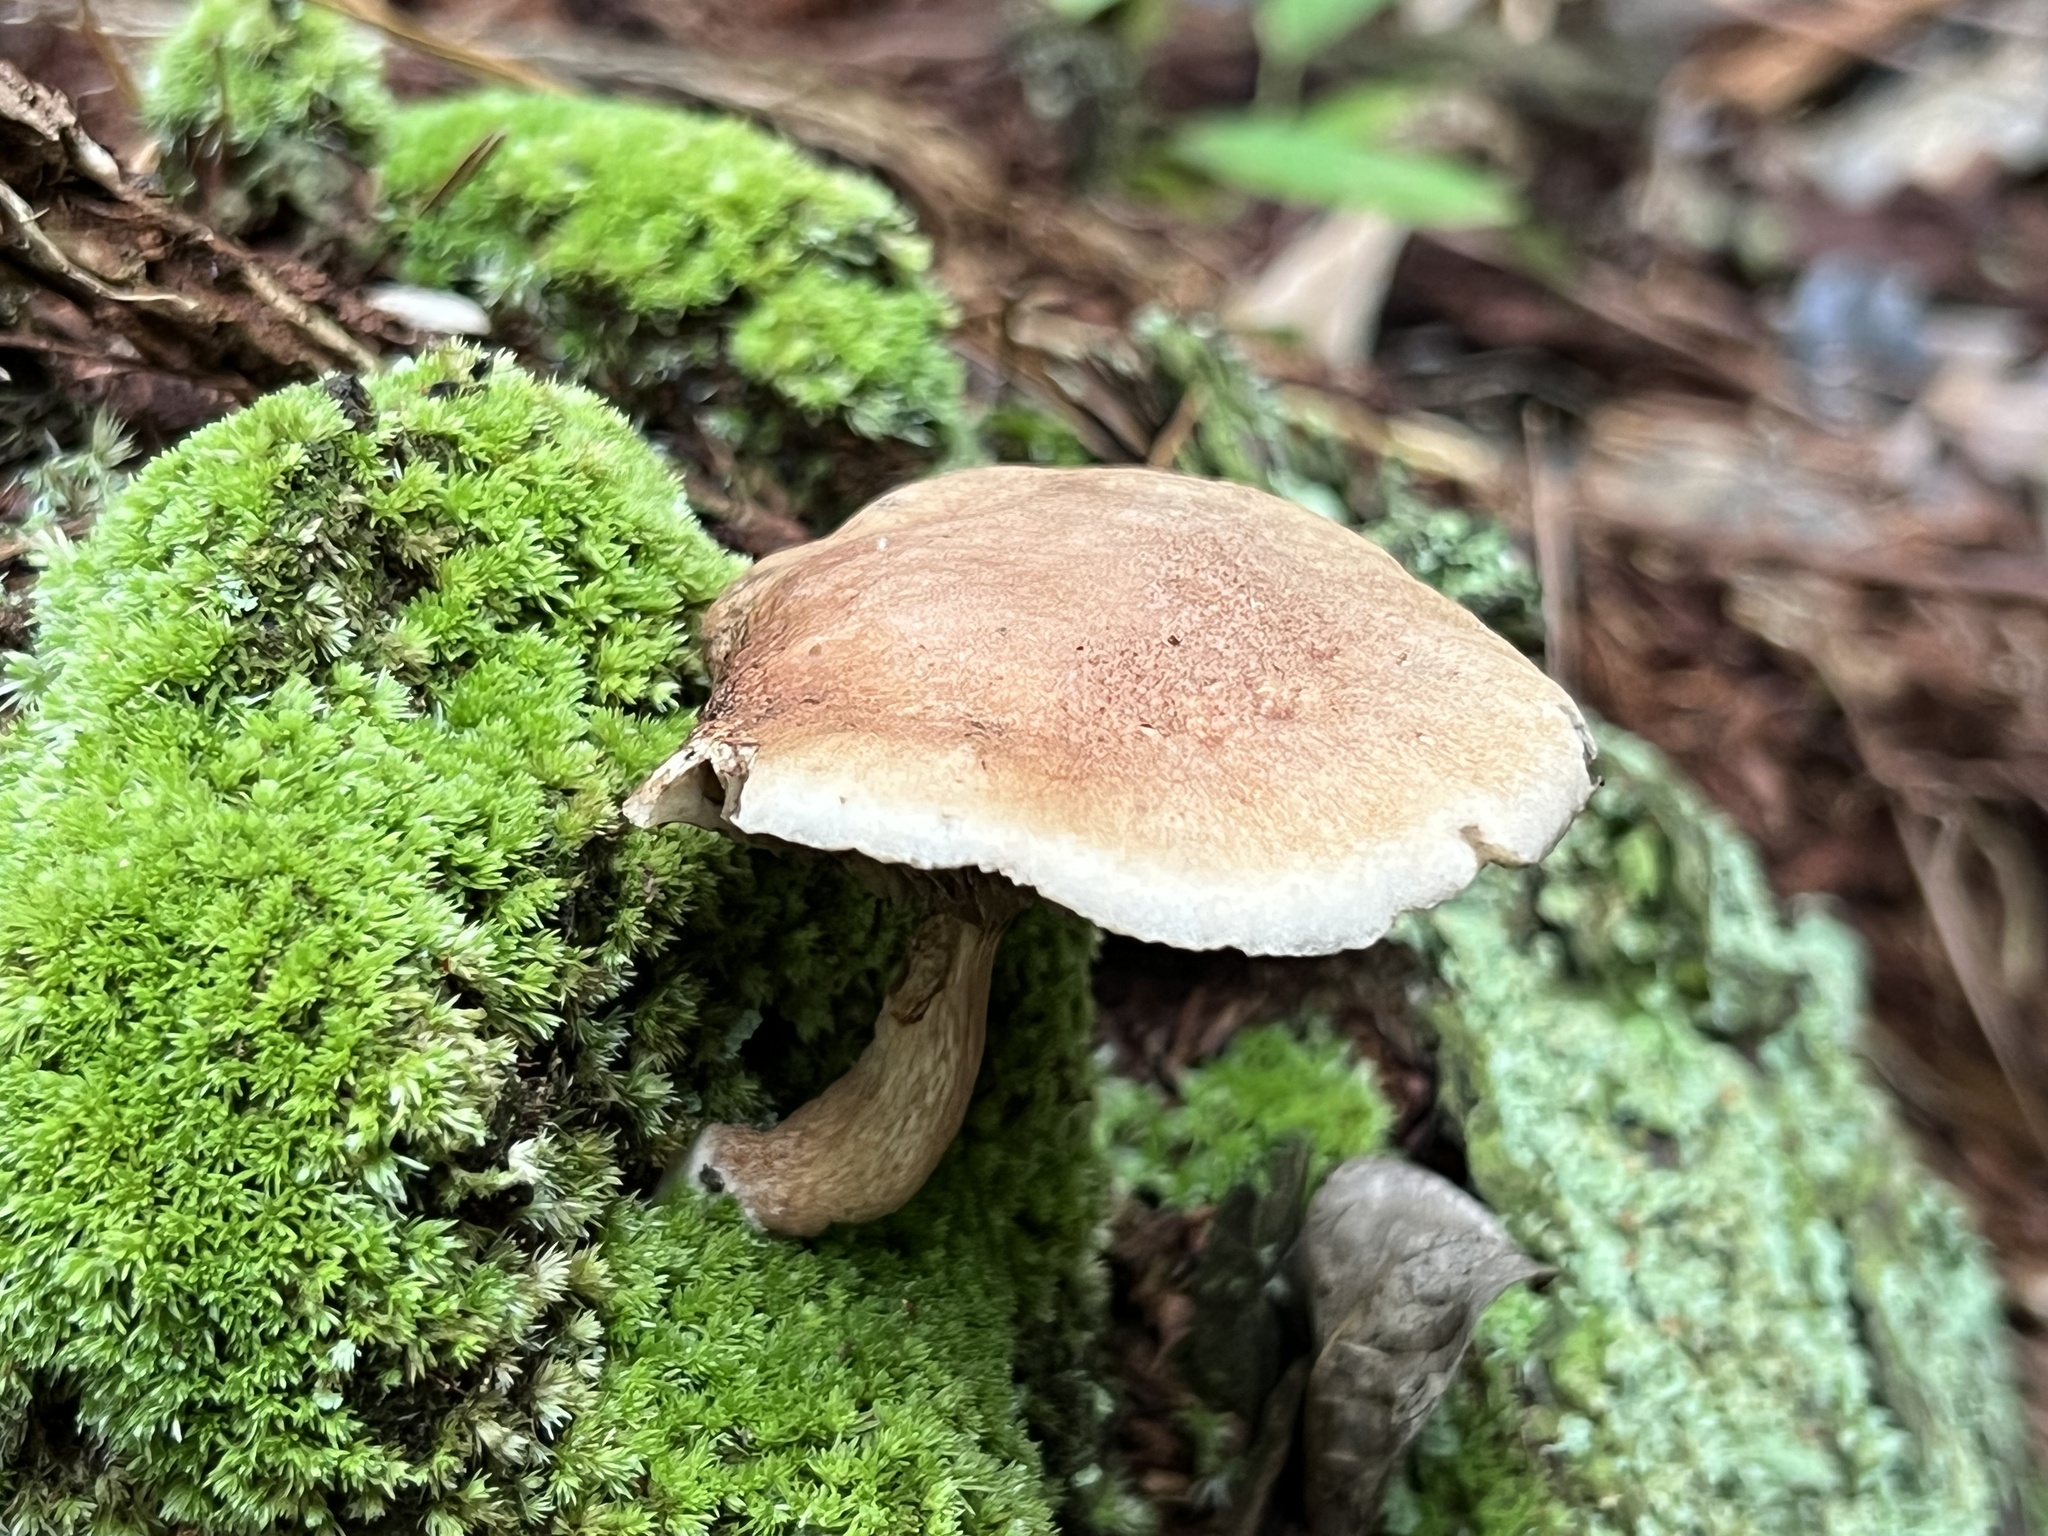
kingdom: Fungi
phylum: Basidiomycota
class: Agaricomycetes
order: Boletales
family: Boletaceae
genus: Phylloporopsis
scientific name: Phylloporopsis boletinoides
